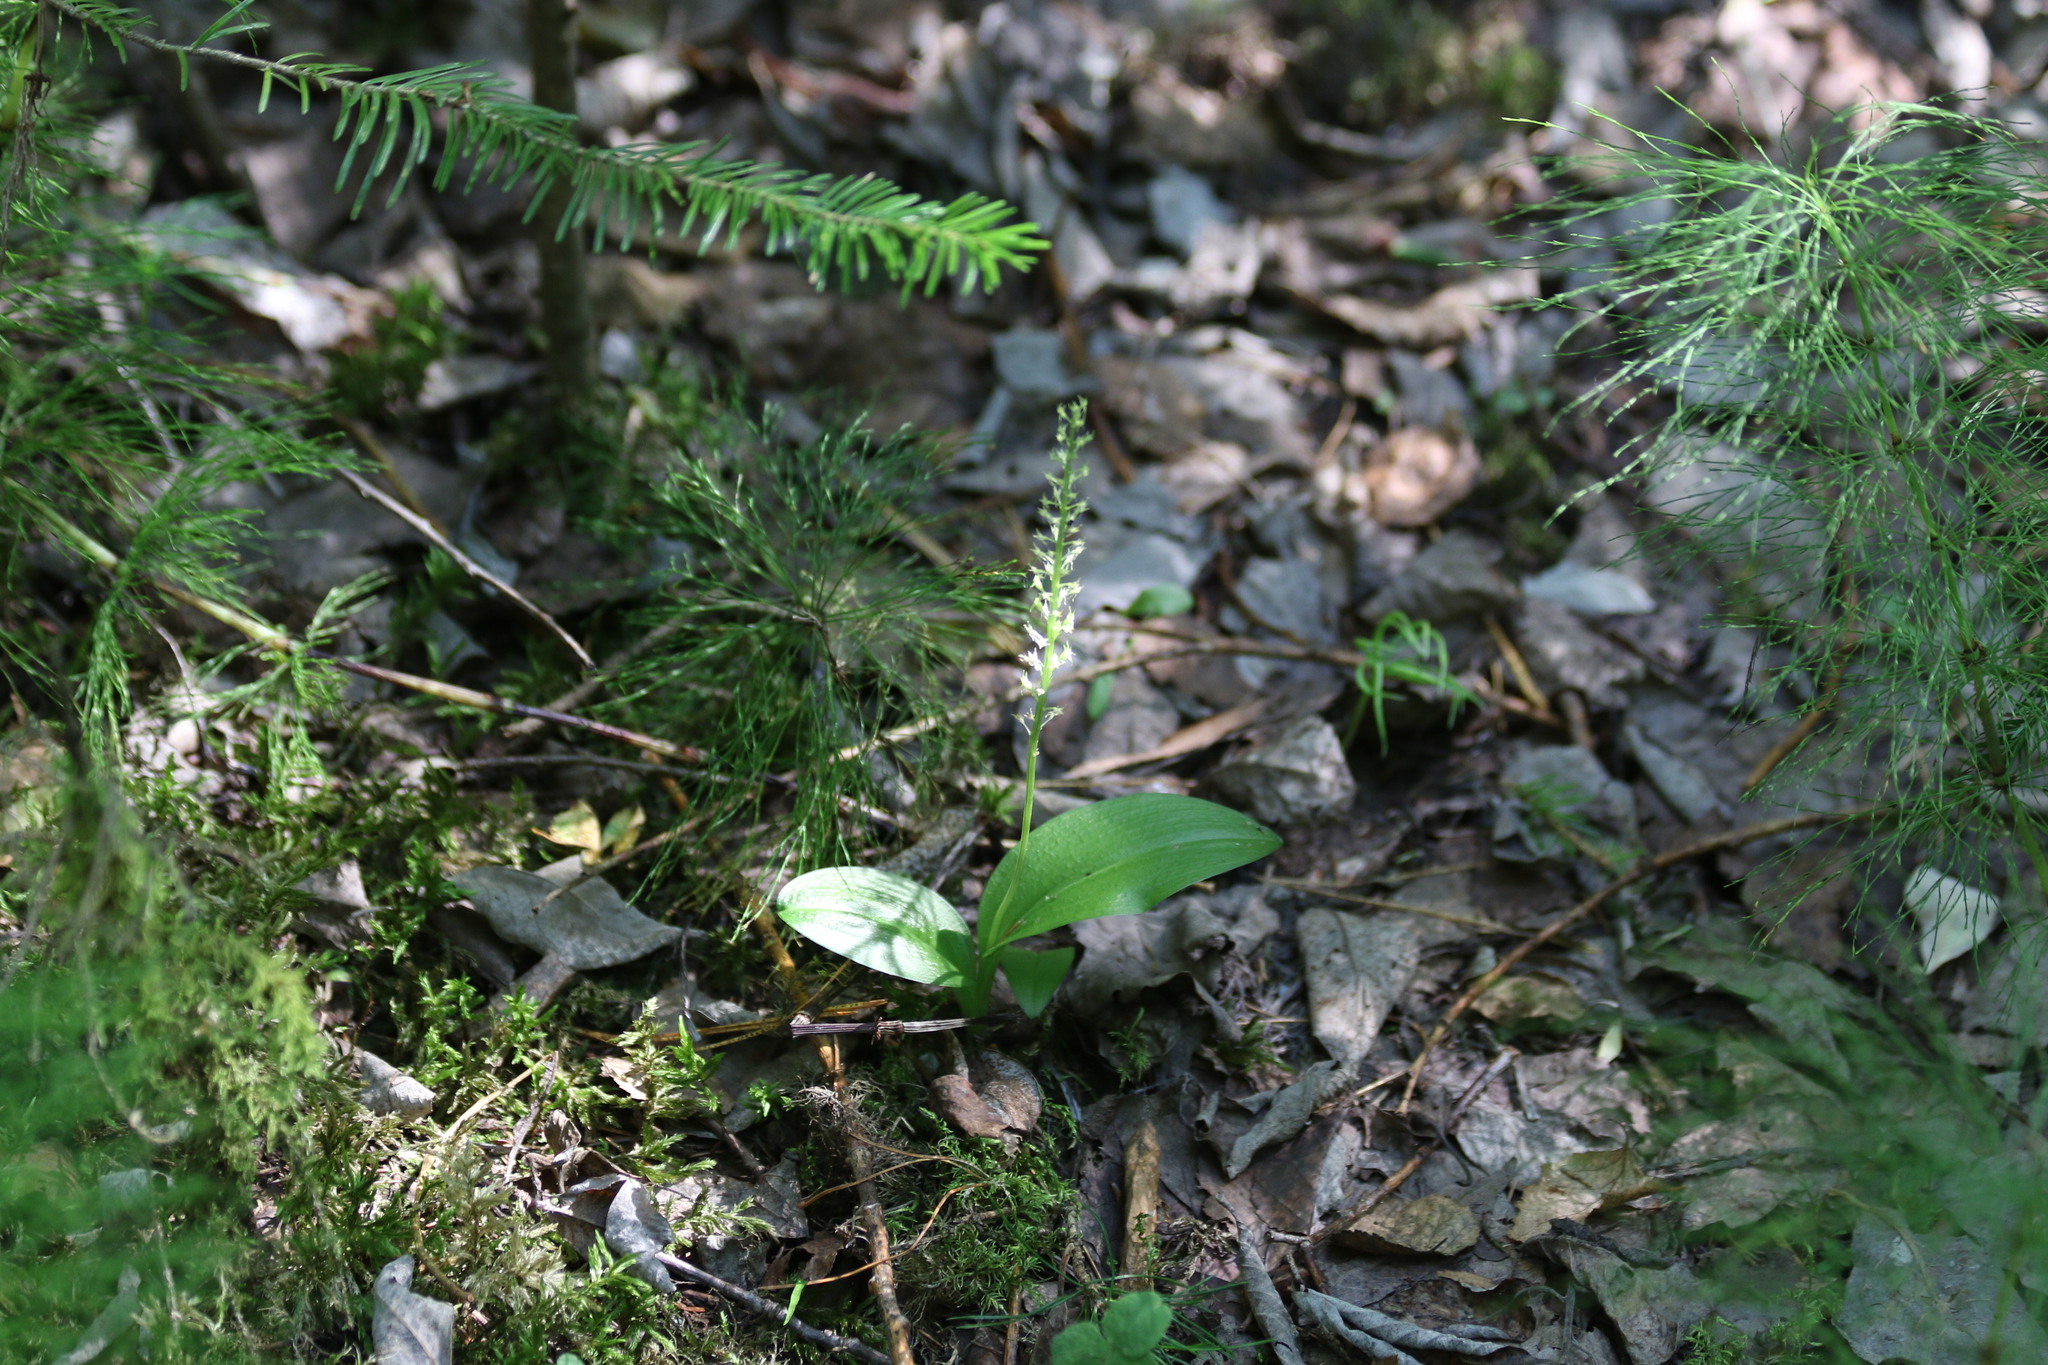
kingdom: Plantae
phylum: Tracheophyta
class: Liliopsida
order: Asparagales
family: Orchidaceae
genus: Malaxis
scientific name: Malaxis monophyllos
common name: White adder's-mouth
